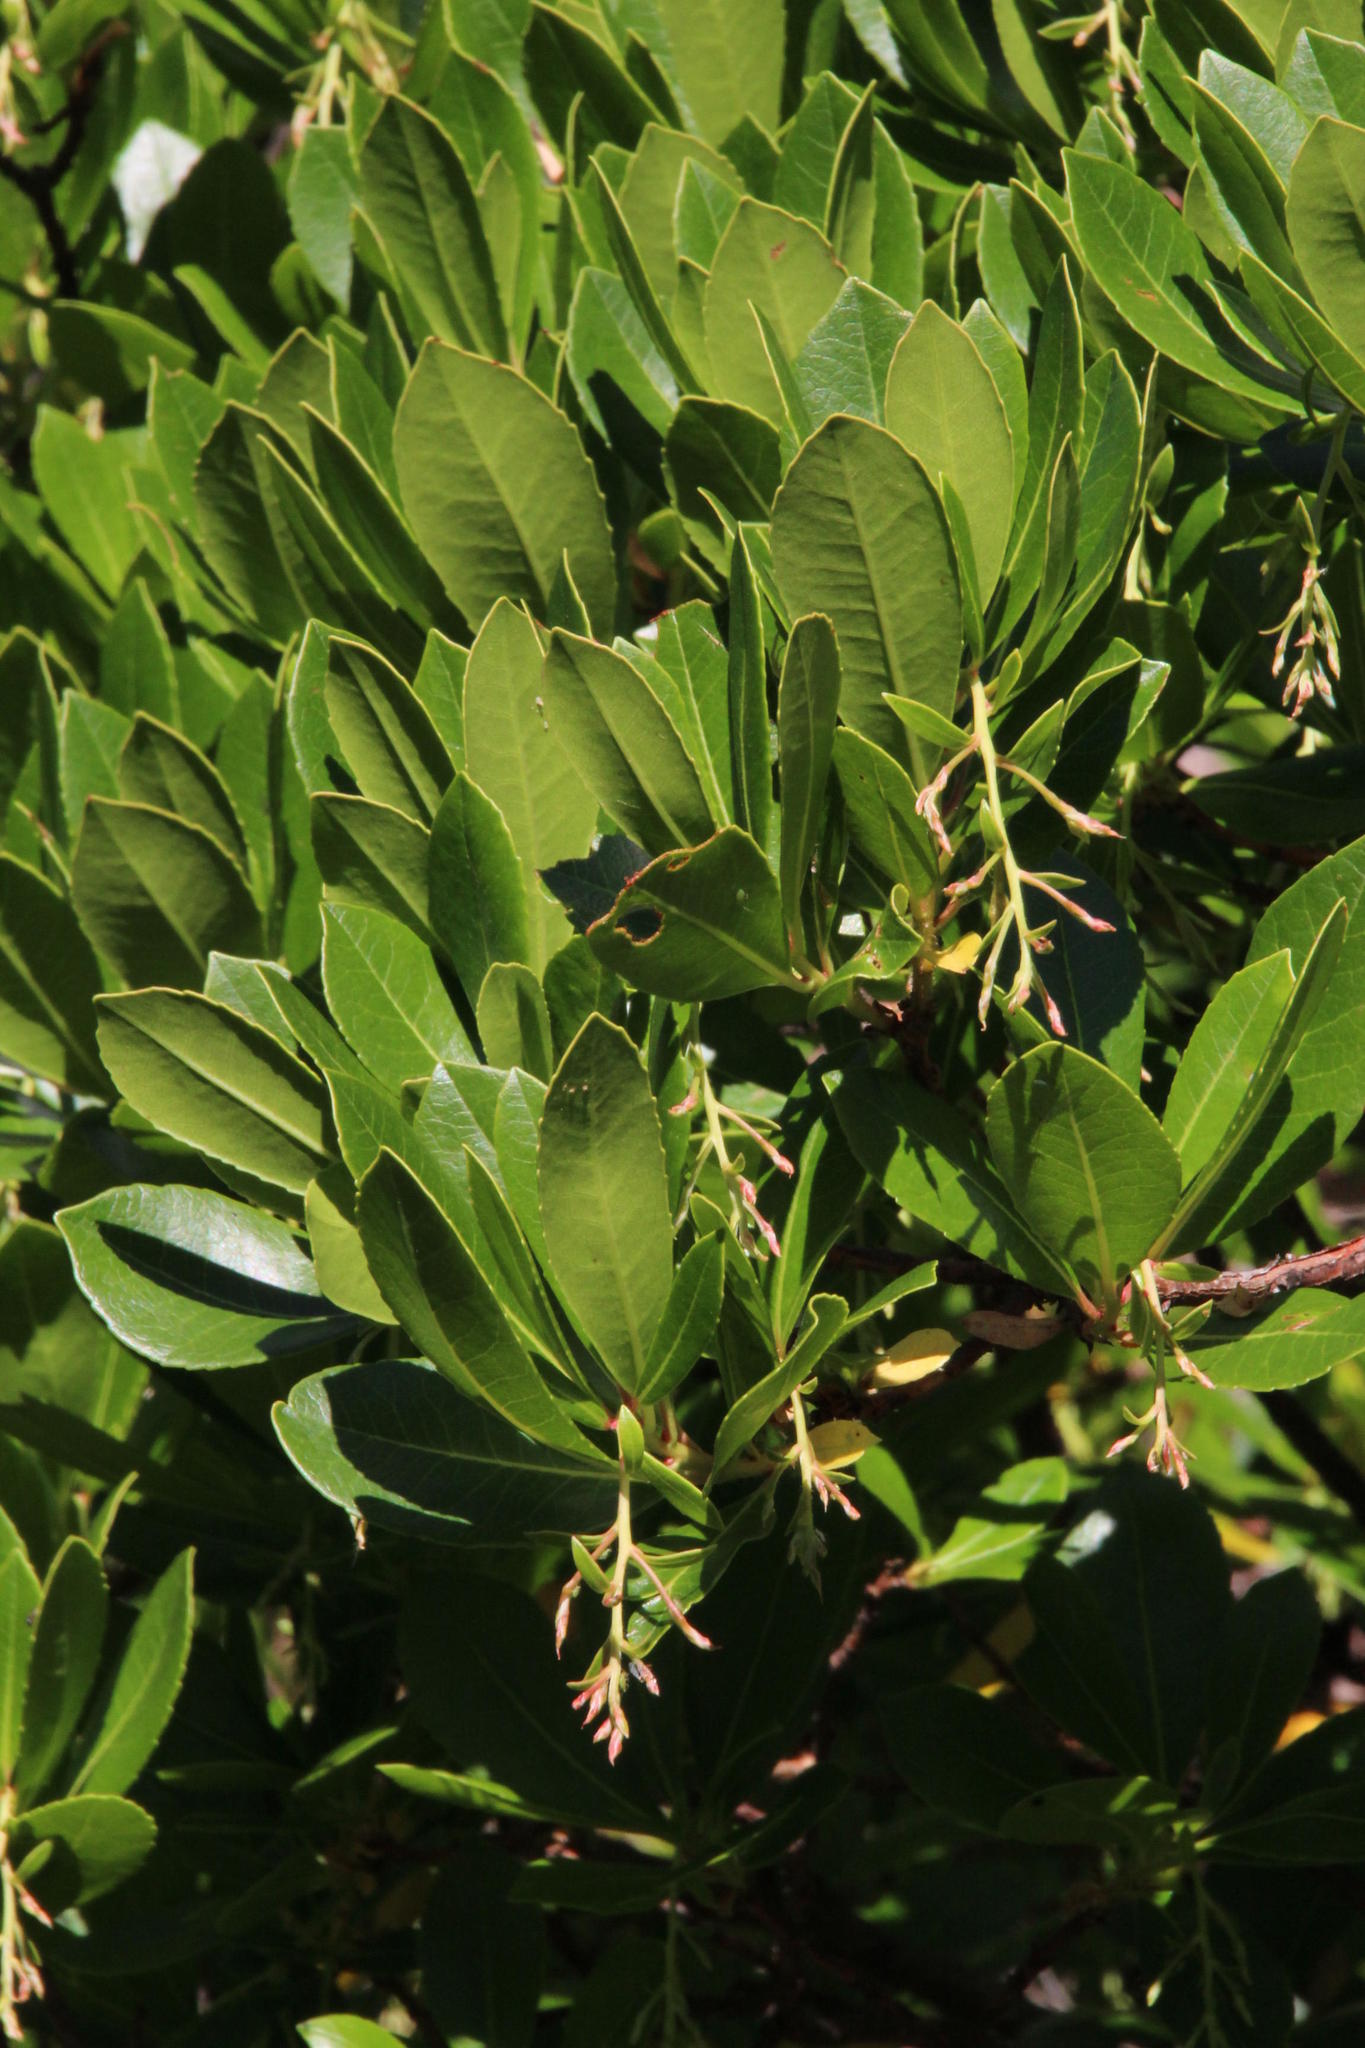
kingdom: Plantae
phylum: Tracheophyta
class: Magnoliopsida
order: Ericales
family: Ericaceae
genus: Arbutus
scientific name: Arbutus unedo
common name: Strawberry-tree
